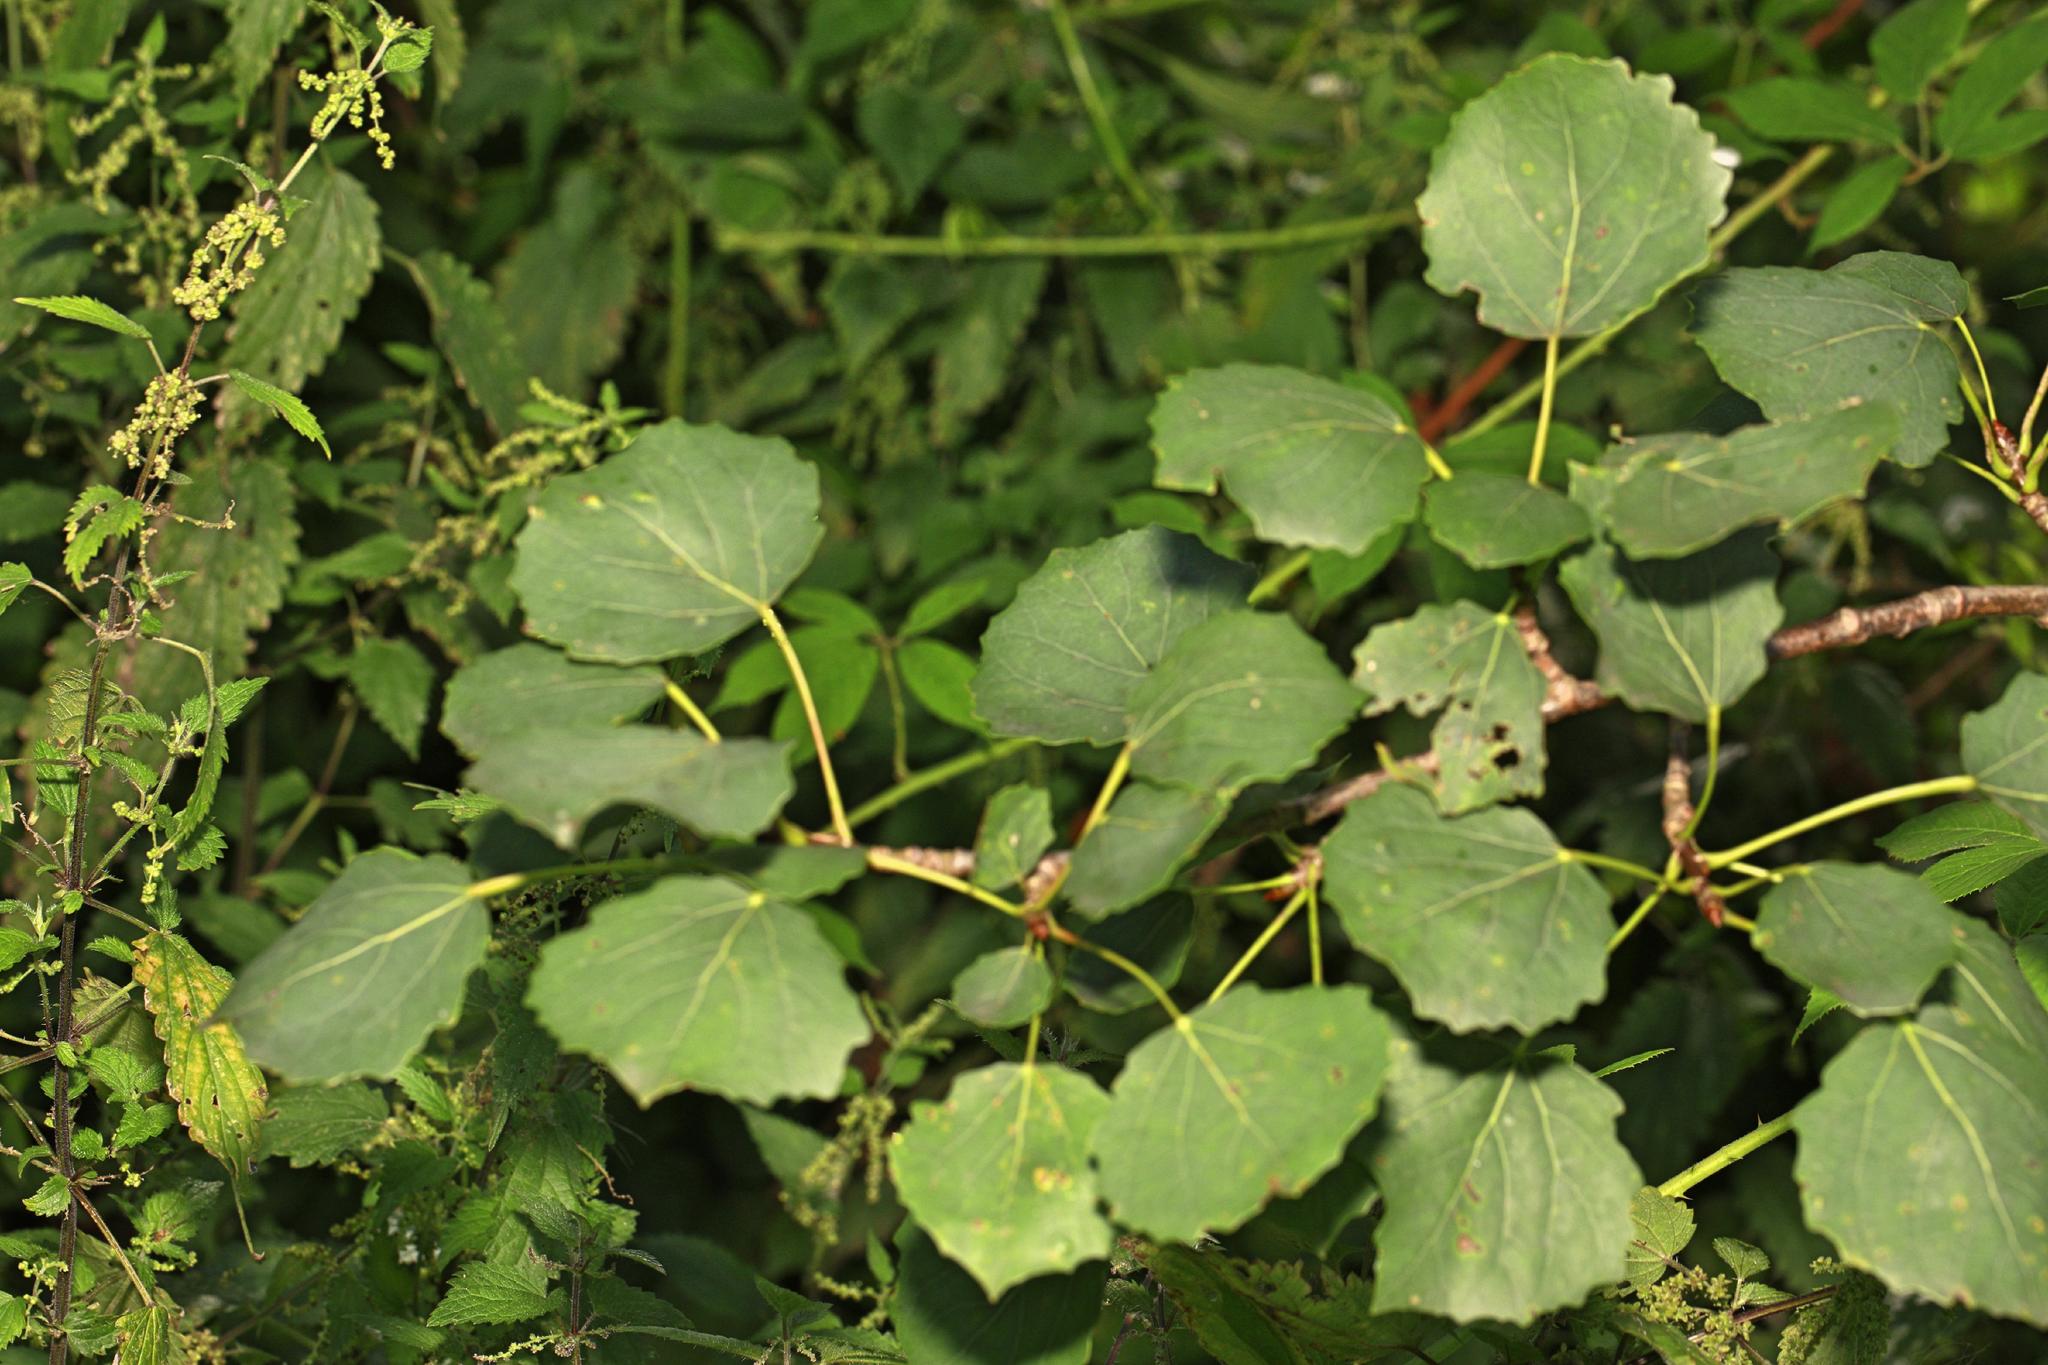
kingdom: Plantae
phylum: Tracheophyta
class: Magnoliopsida
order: Malpighiales
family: Salicaceae
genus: Populus
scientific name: Populus tremula
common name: European aspen
